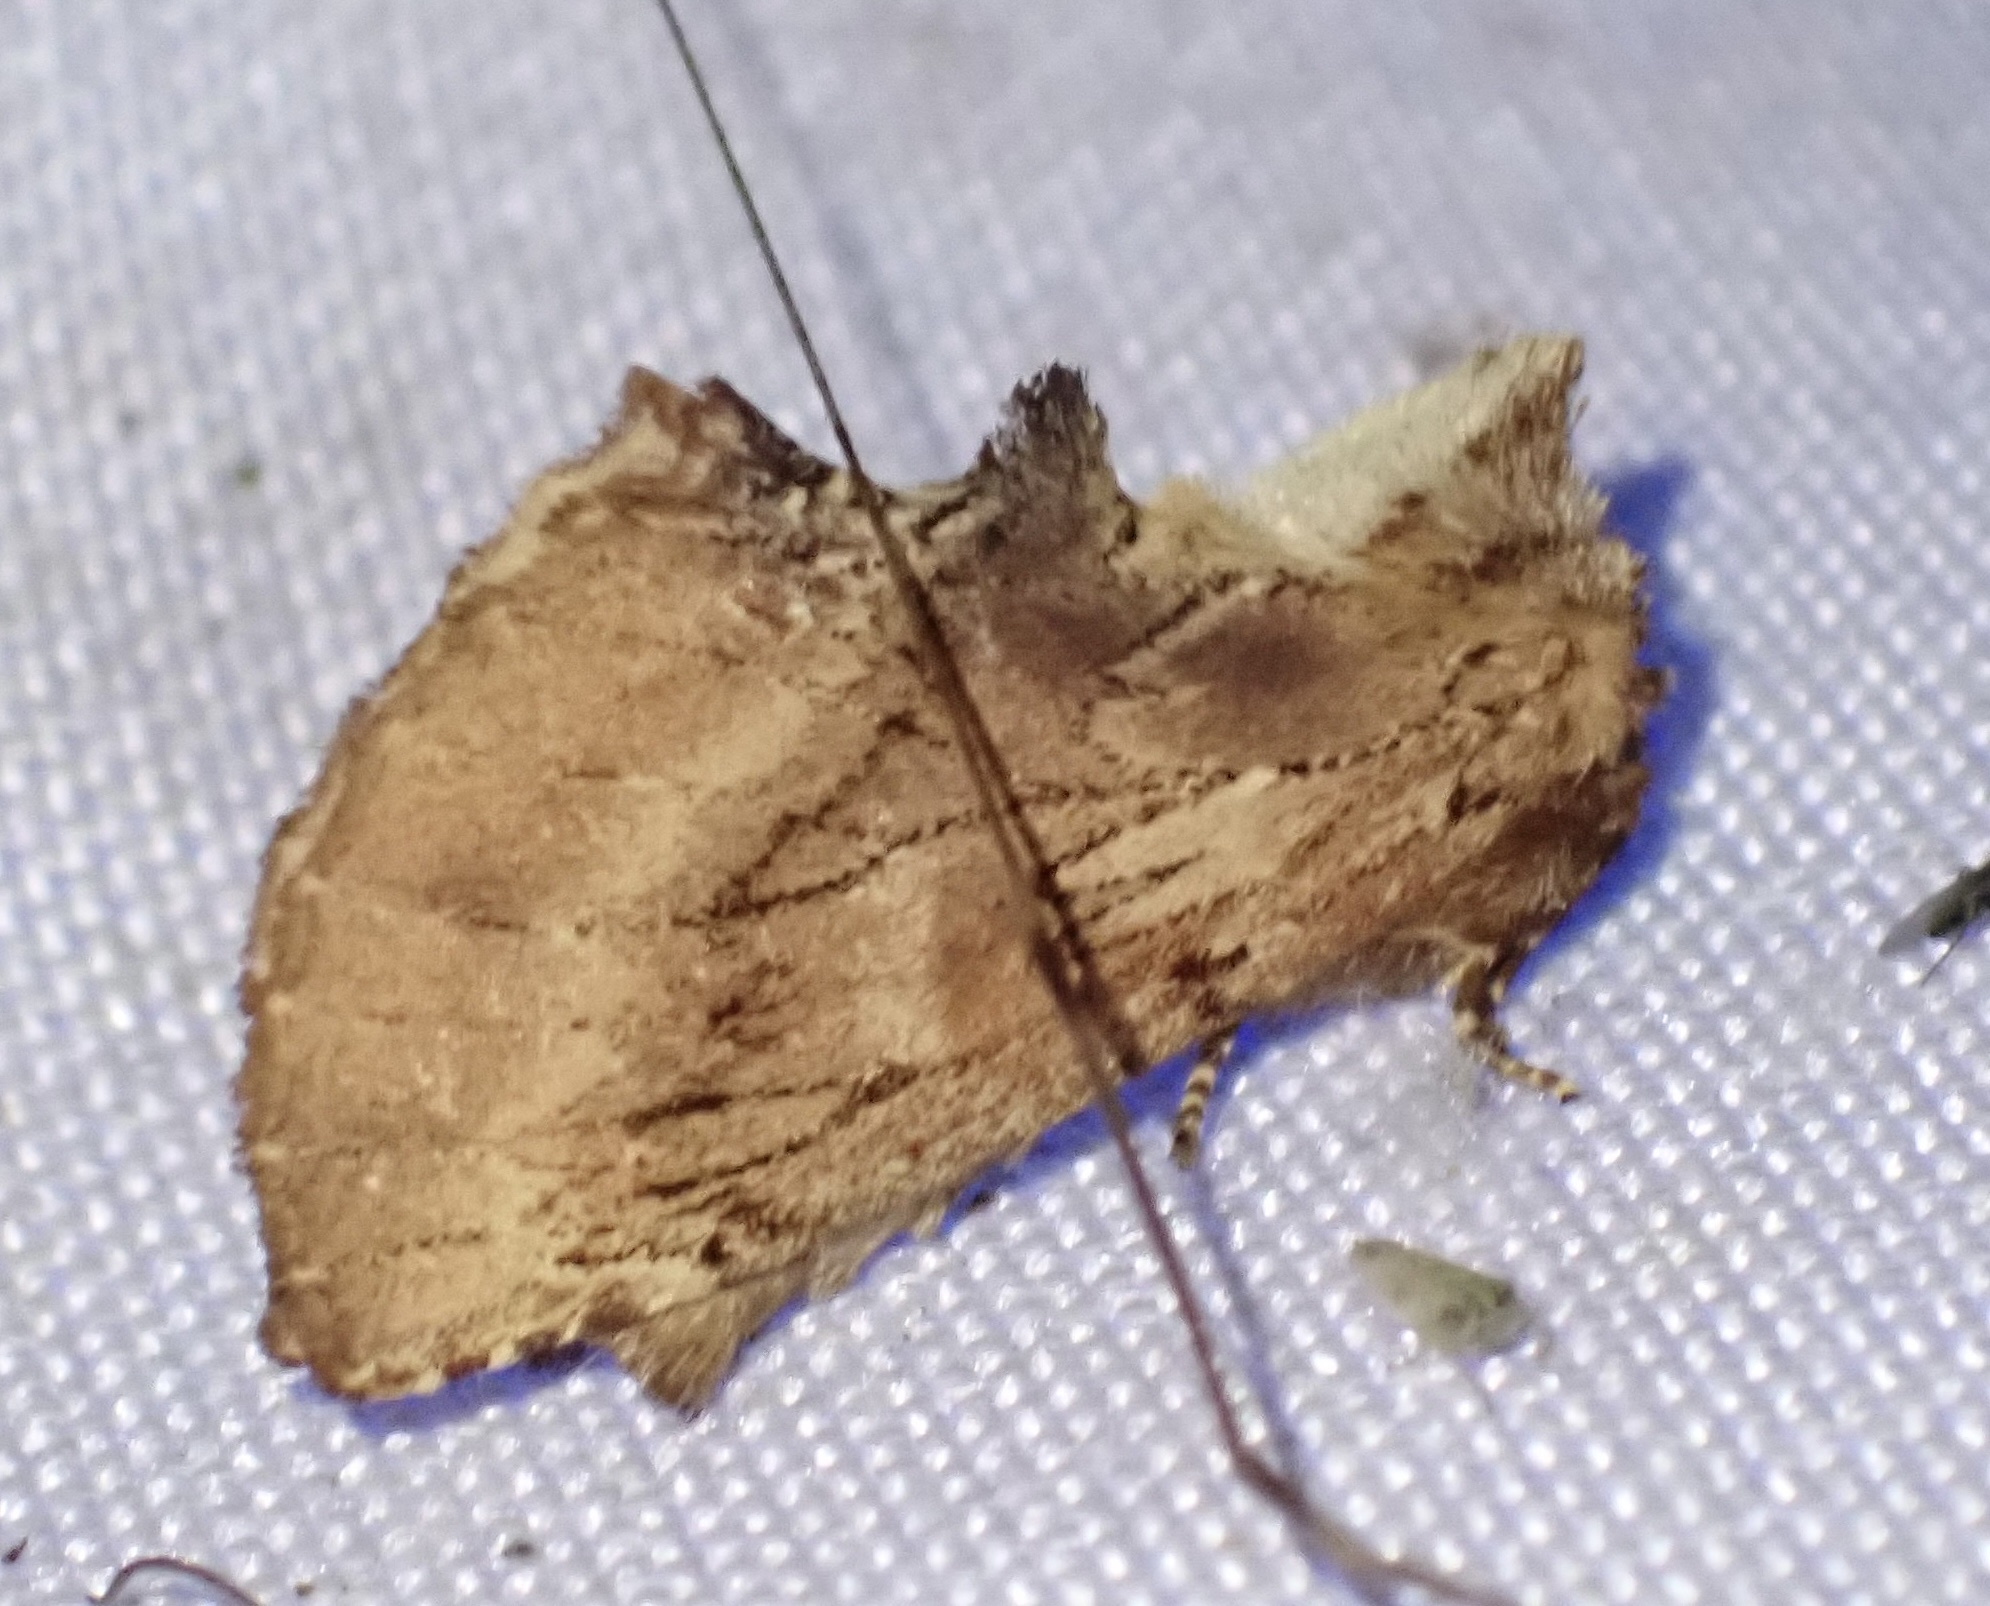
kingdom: Animalia
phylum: Arthropoda
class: Insecta
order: Lepidoptera
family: Notodontidae
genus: Ptilodon
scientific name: Ptilodon capucina
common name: Coxcomb prominent
